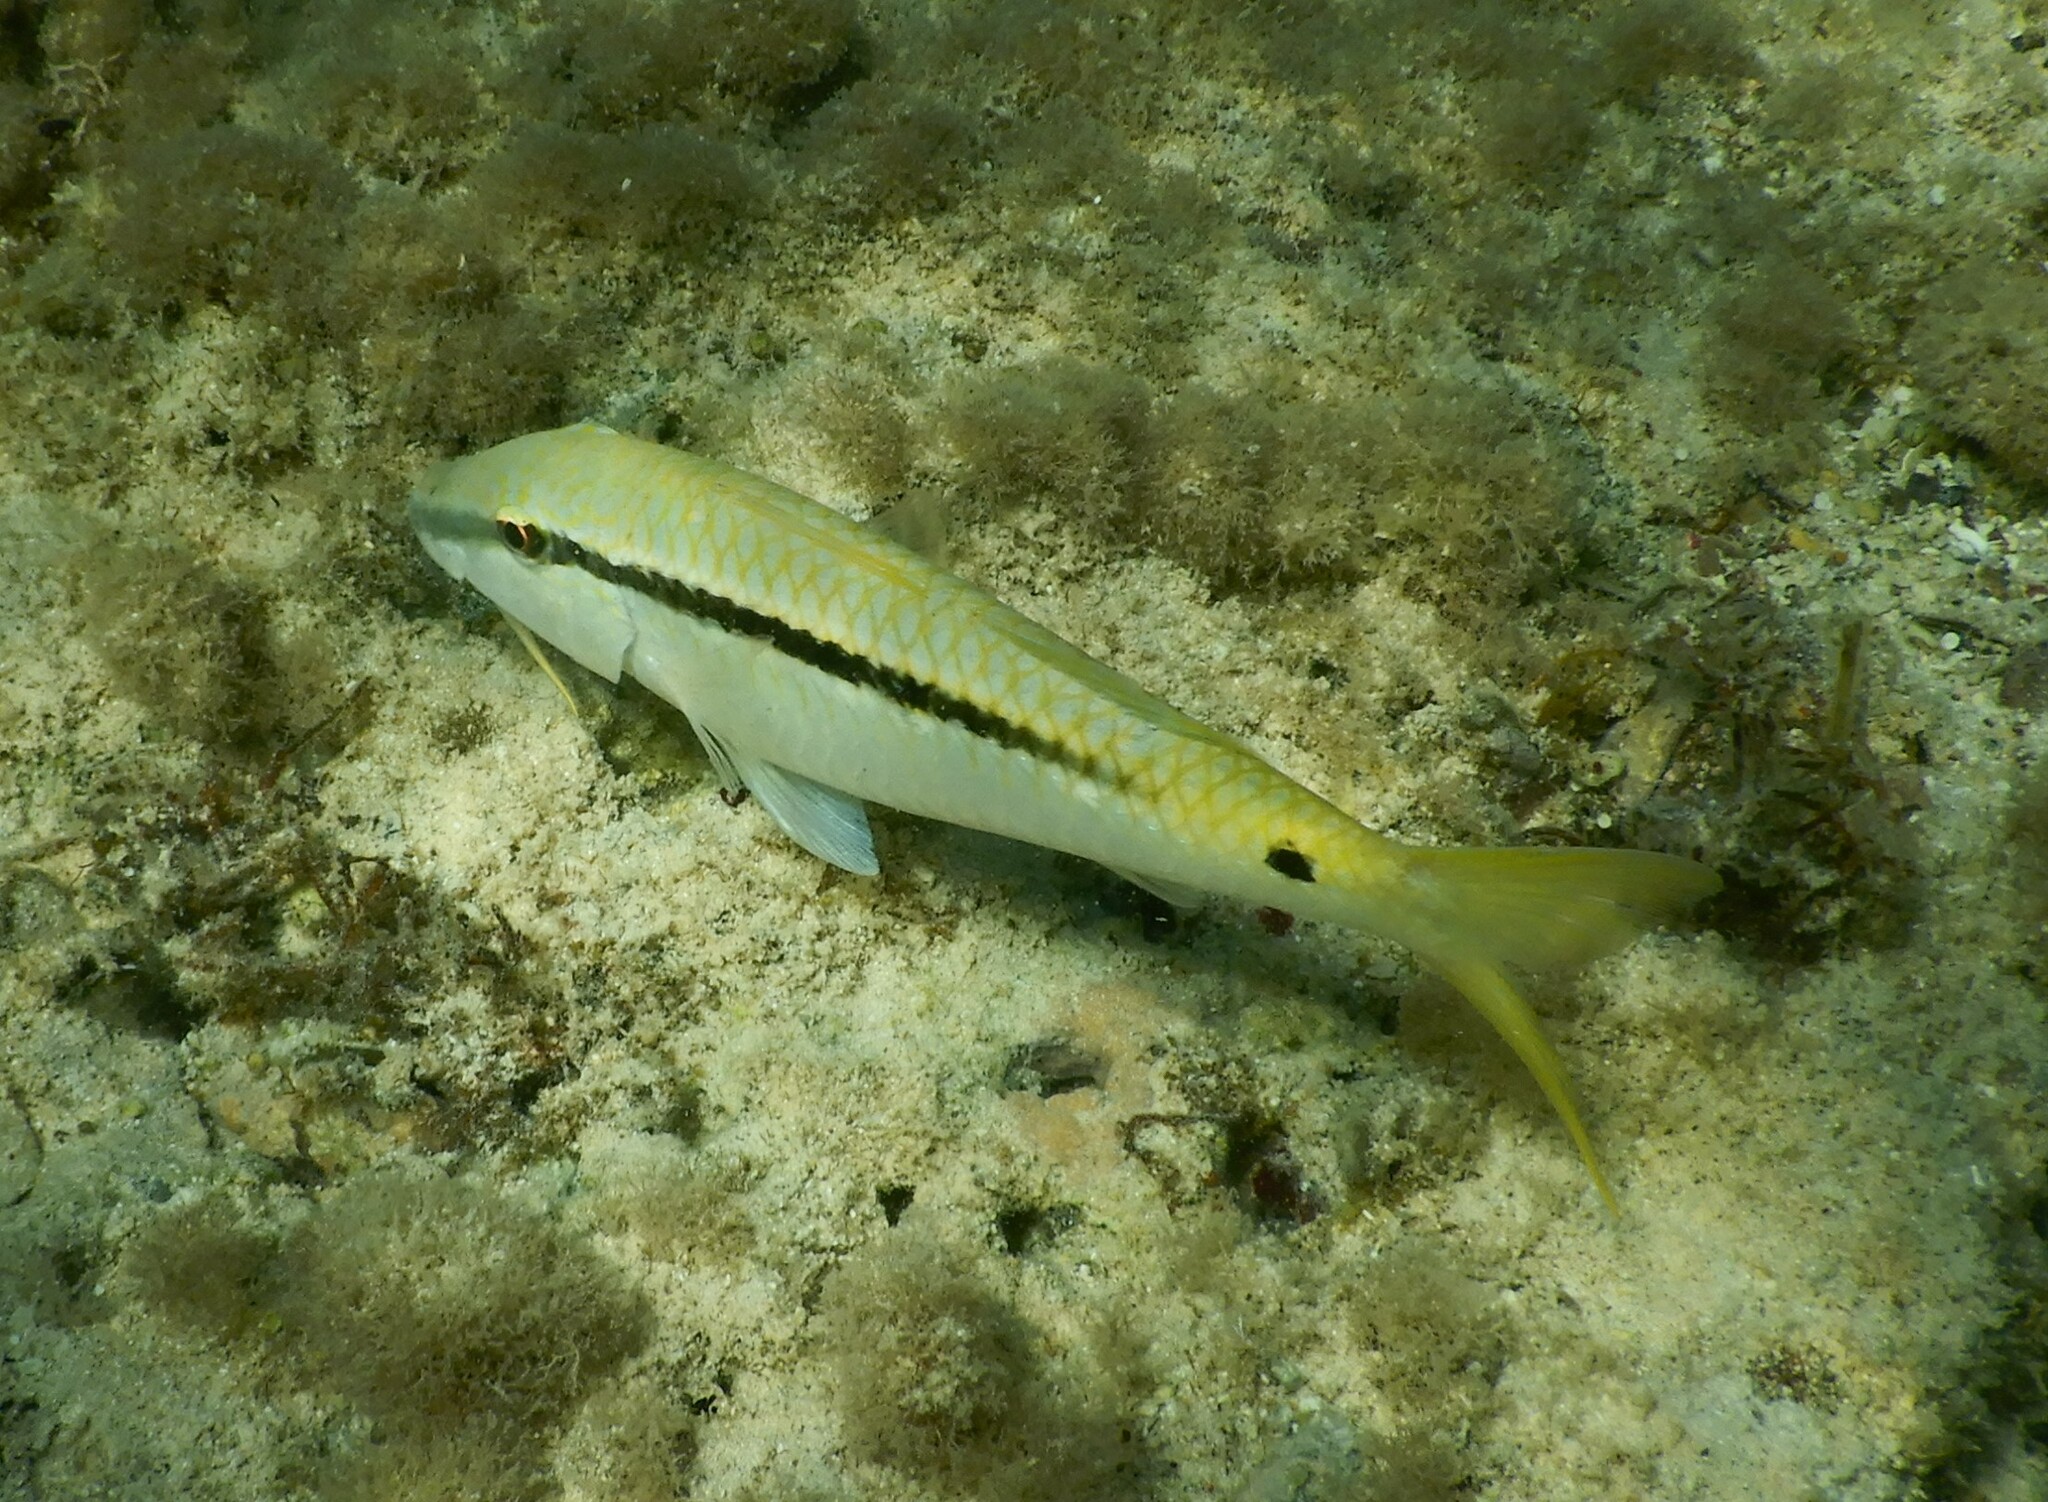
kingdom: Animalia
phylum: Chordata
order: Perciformes
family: Mullidae
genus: Parupeneus
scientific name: Parupeneus forsskali
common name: Red sea goatfish
